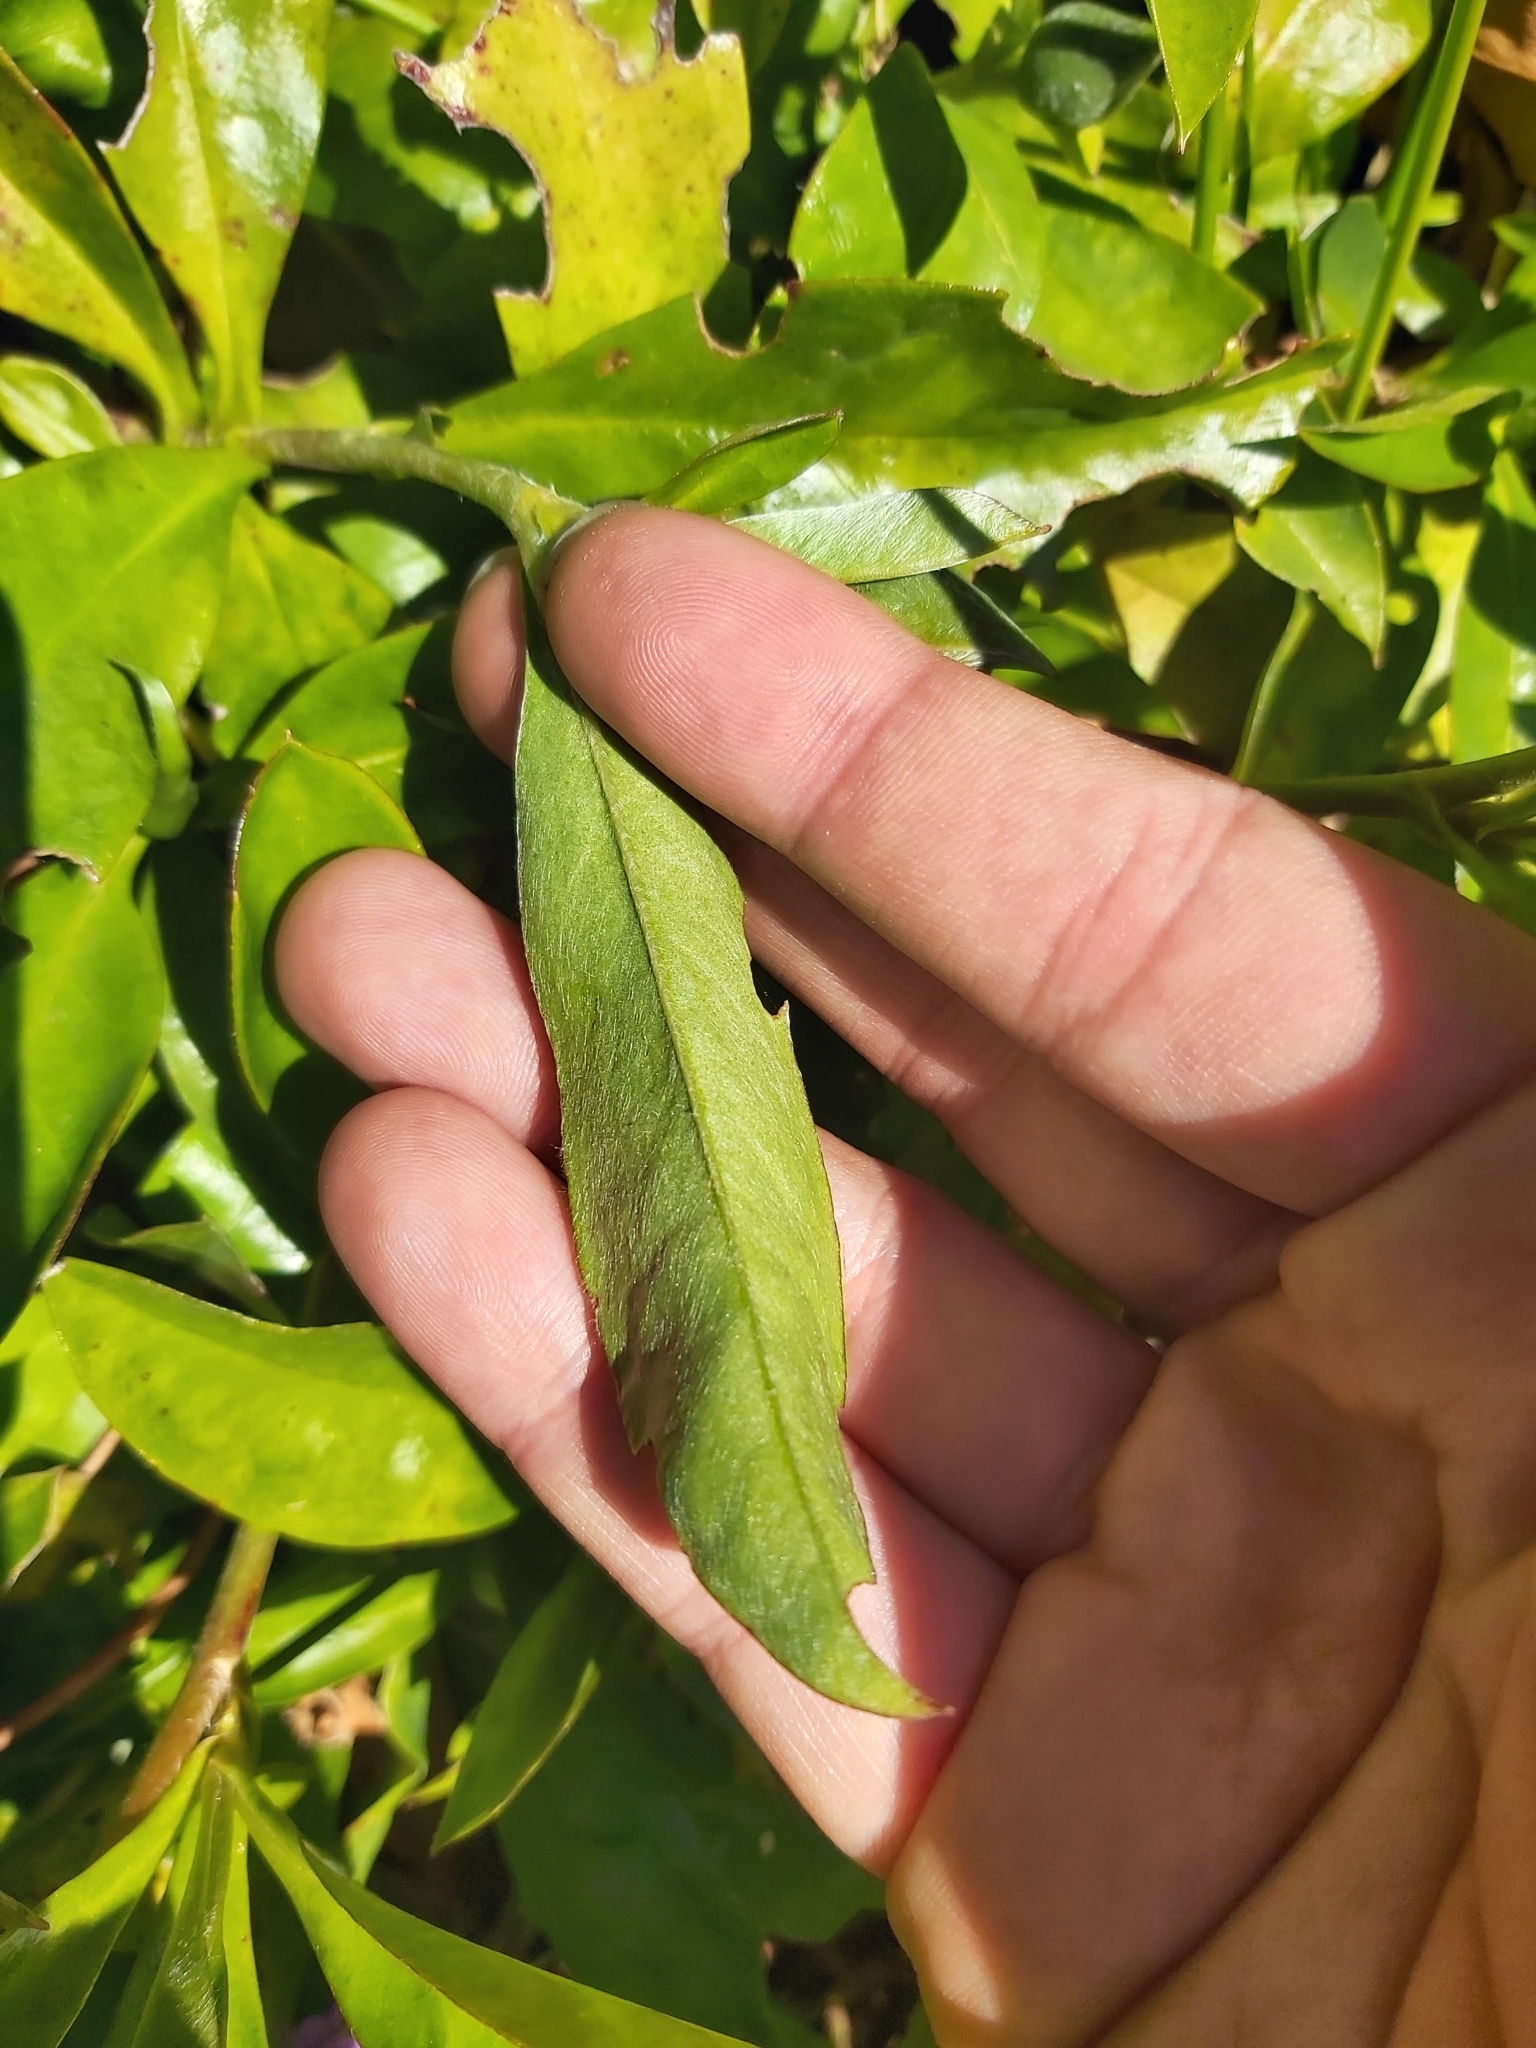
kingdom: Plantae
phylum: Tracheophyta
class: Magnoliopsida
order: Dilleniales
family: Dilleniaceae
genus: Hibbertia
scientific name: Hibbertia scandens
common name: Climbing guinea-flower
